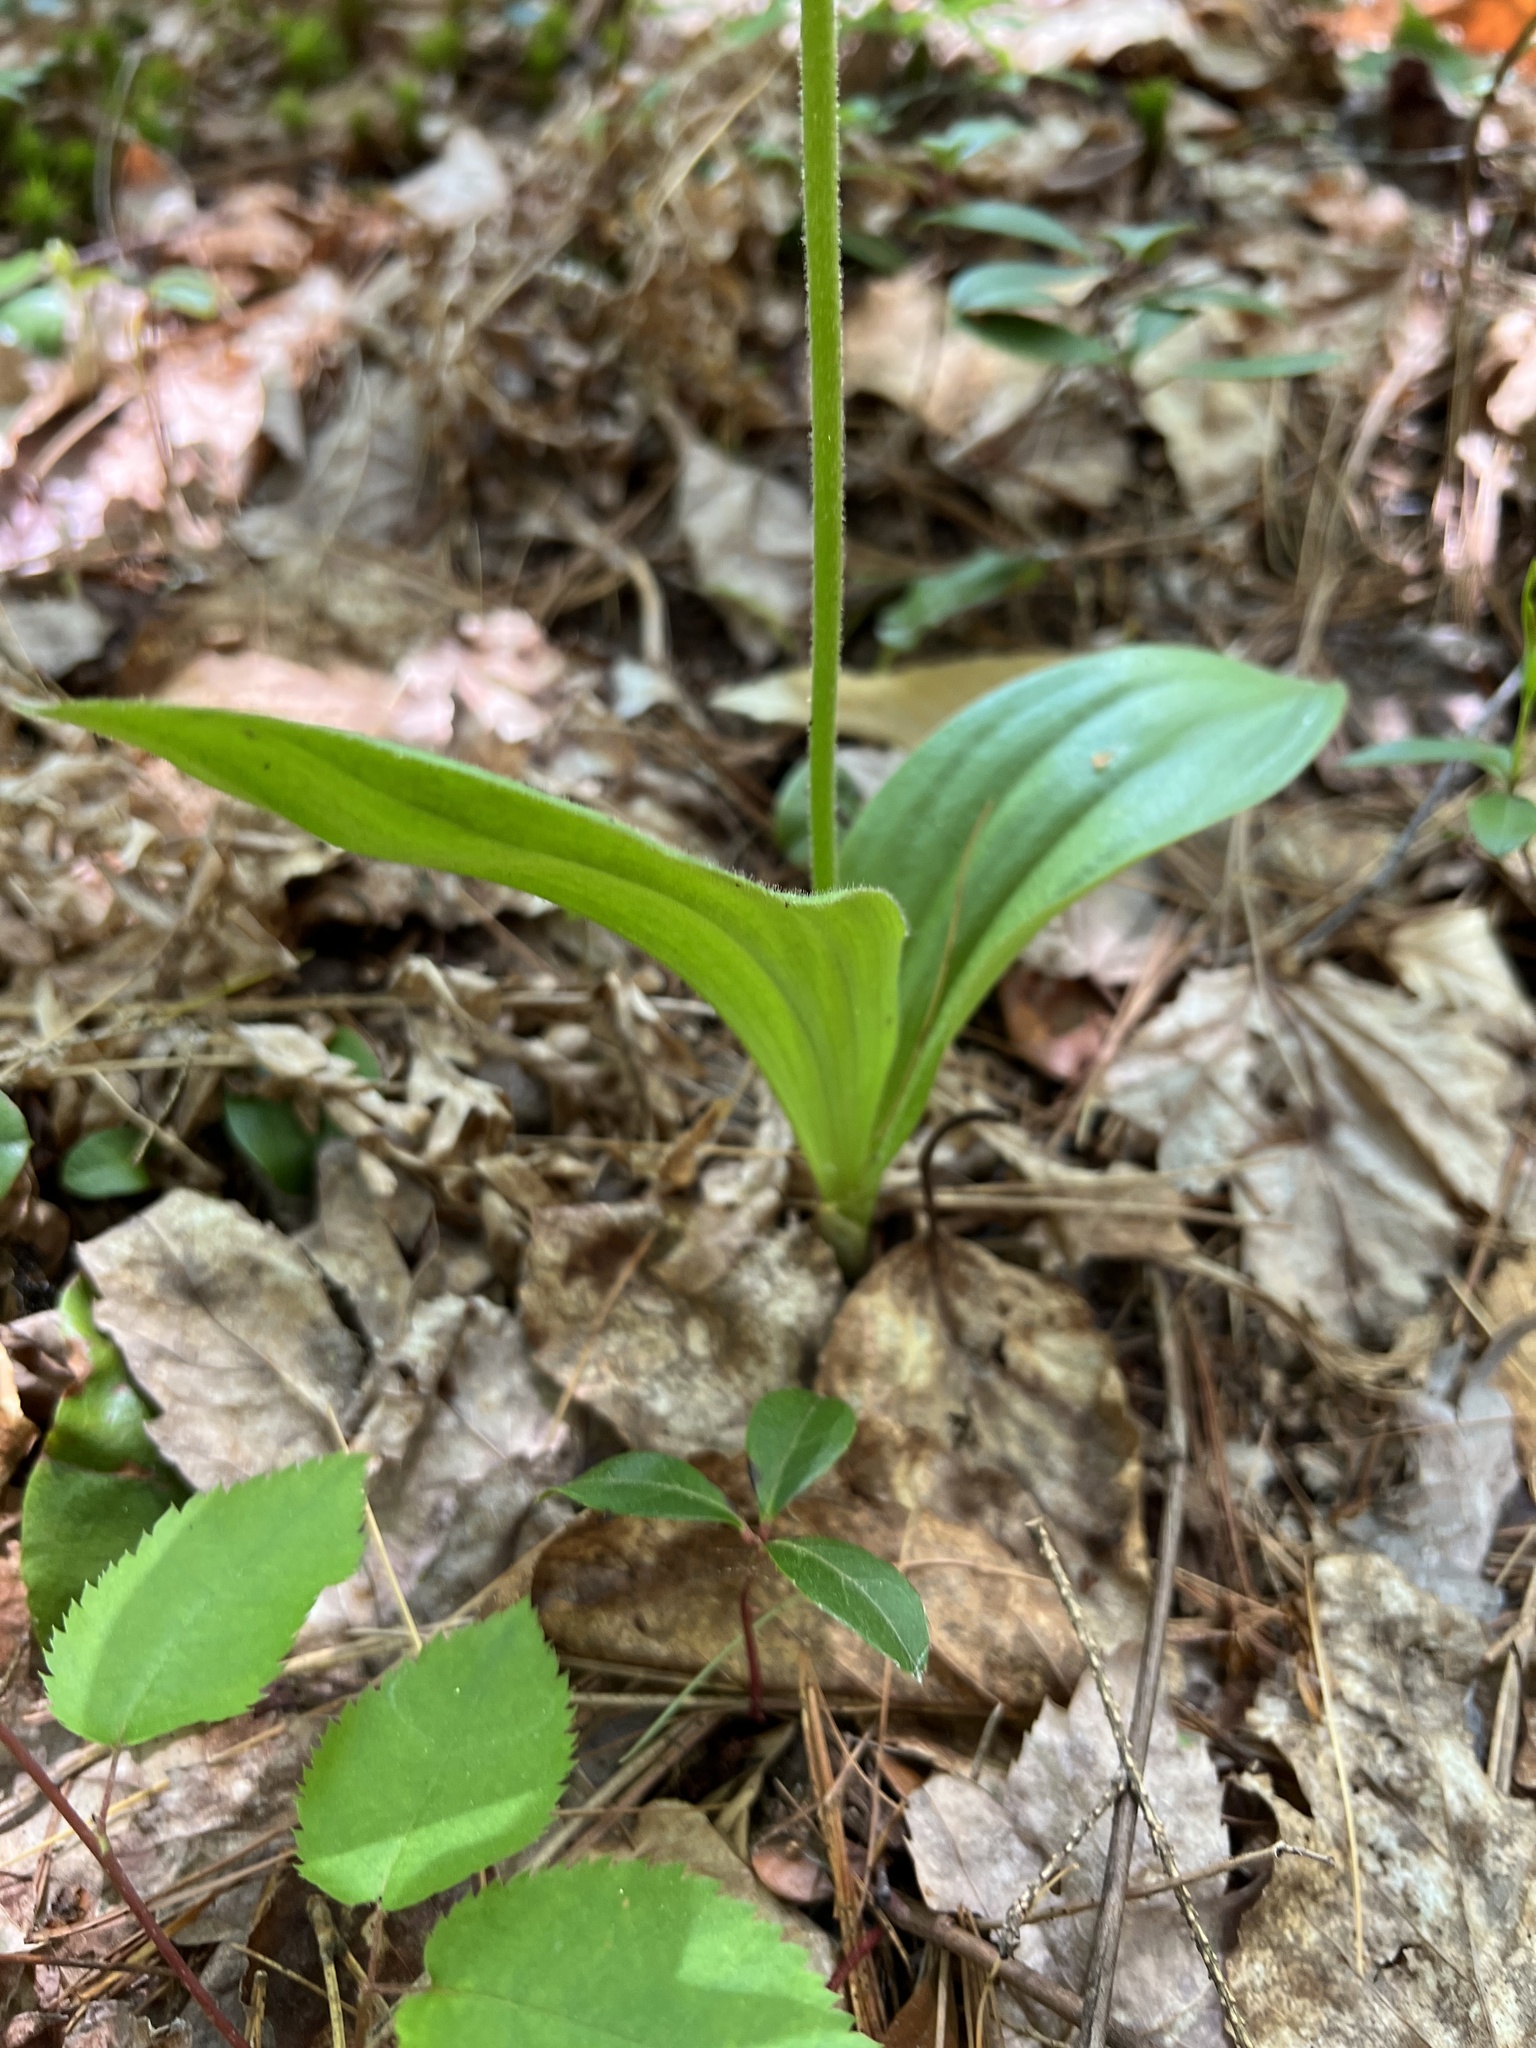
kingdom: Plantae
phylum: Tracheophyta
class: Liliopsida
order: Asparagales
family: Orchidaceae
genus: Cypripedium
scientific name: Cypripedium acaule
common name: Pink lady's-slipper
